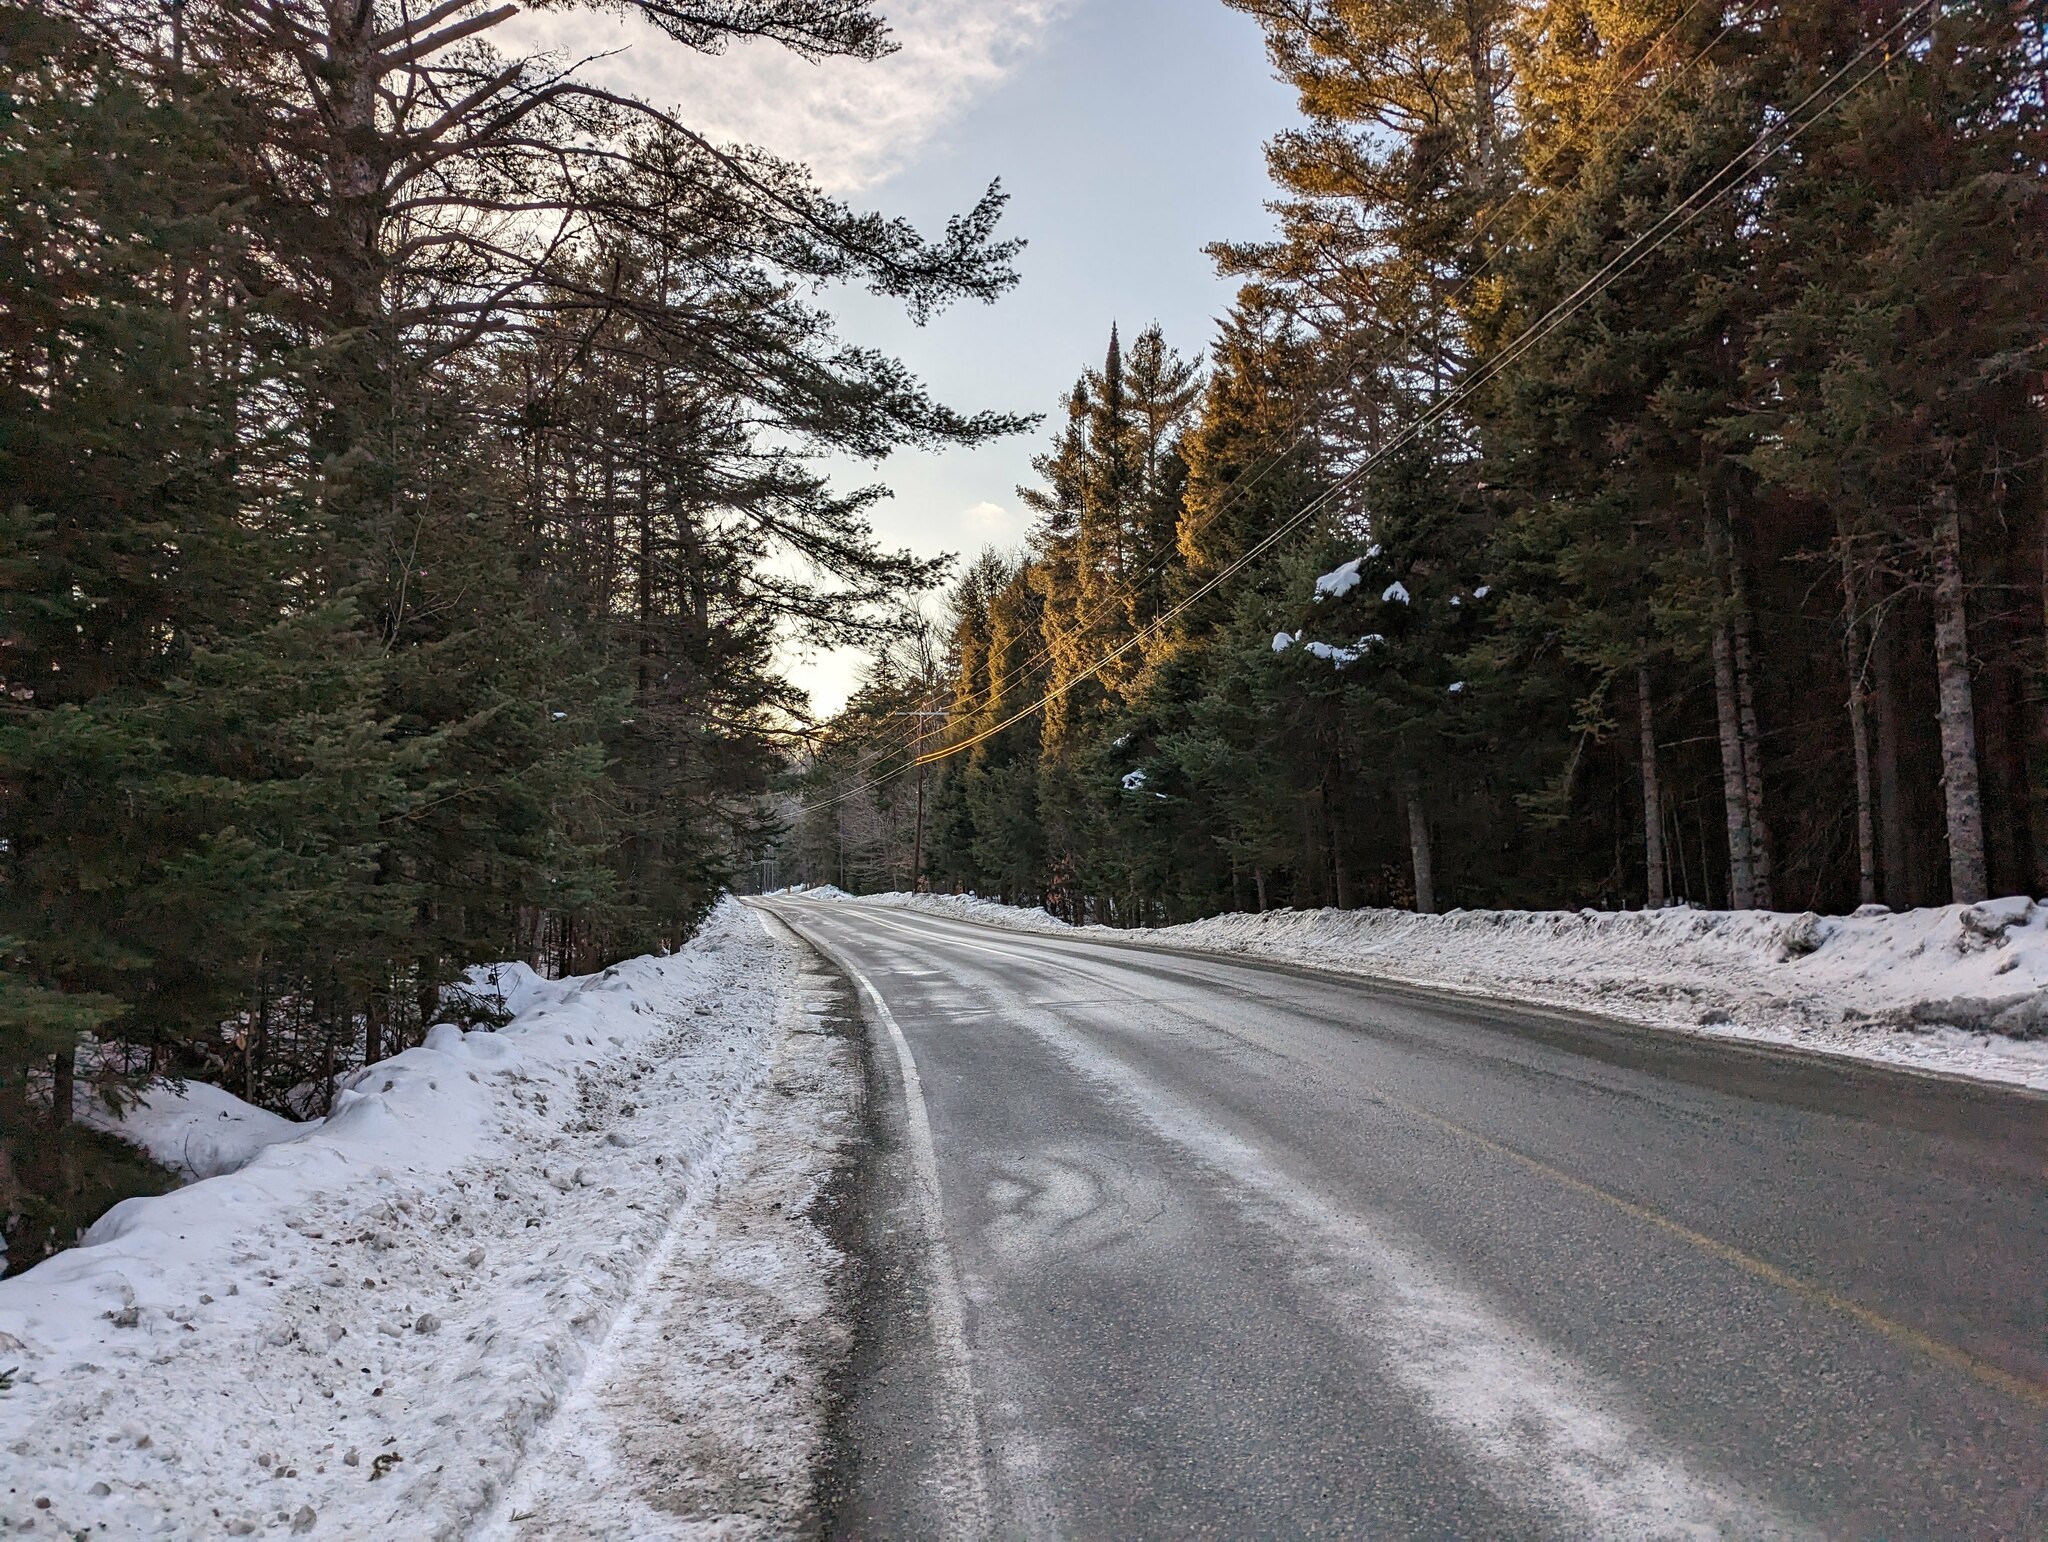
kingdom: Plantae
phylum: Tracheophyta
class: Pinopsida
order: Pinales
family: Pinaceae
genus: Pinus
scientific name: Pinus strobus
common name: Weymouth pine
